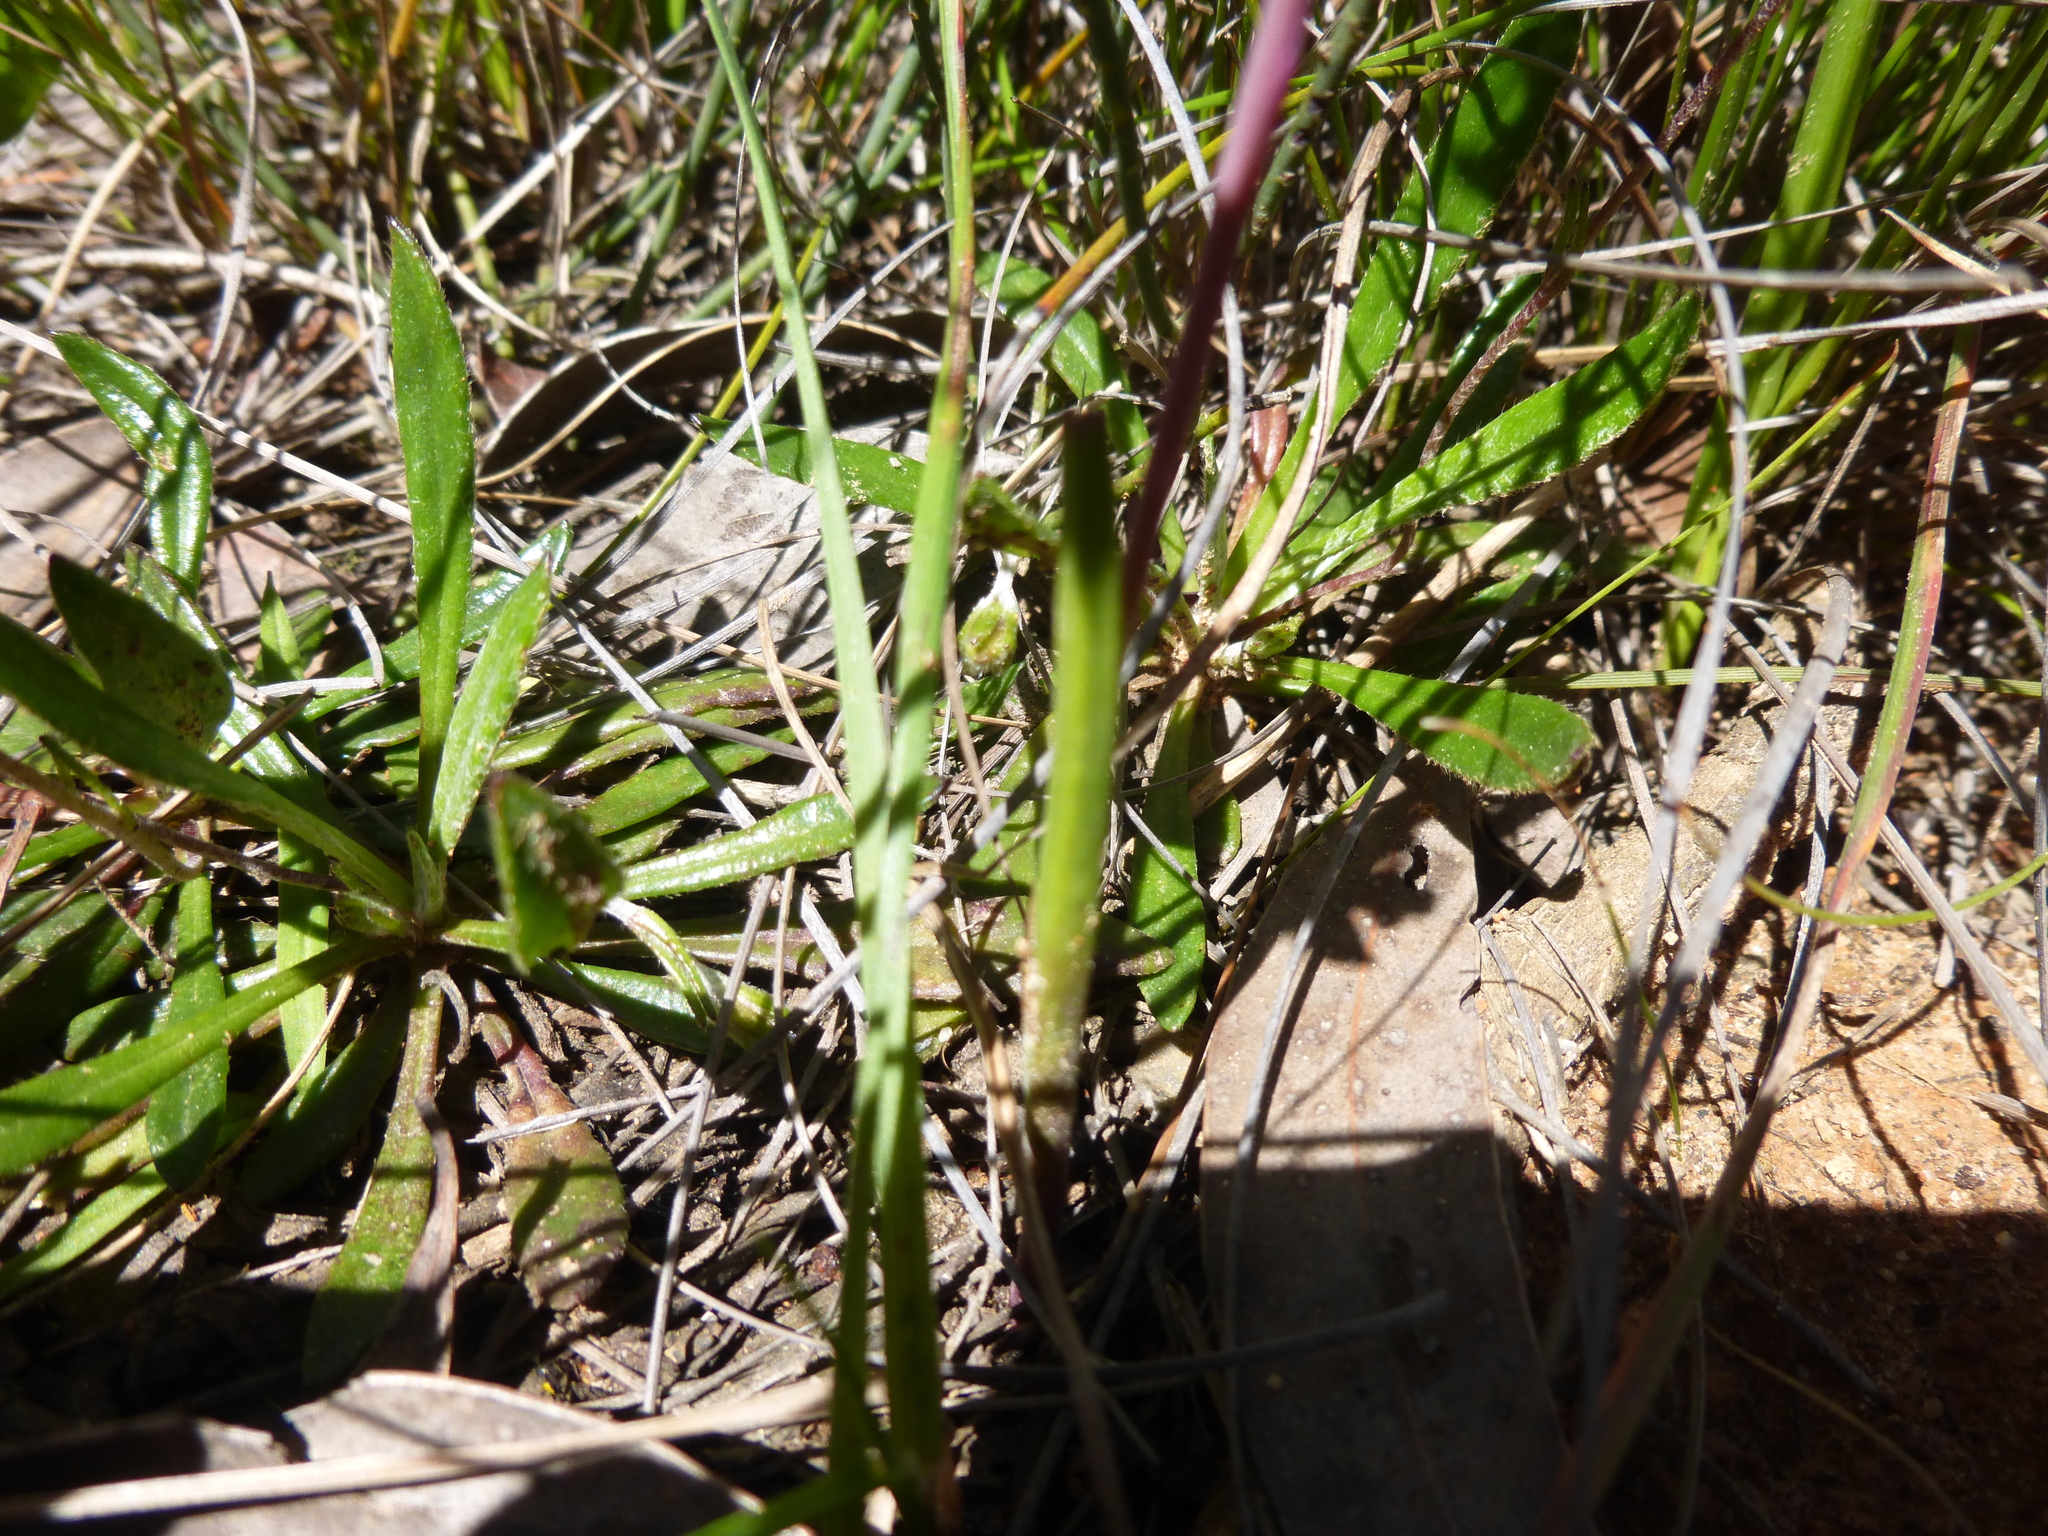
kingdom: Plantae
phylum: Tracheophyta
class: Liliopsida
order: Asparagales
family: Orchidaceae
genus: Thelymitra
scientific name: Thelymitra ixioides
